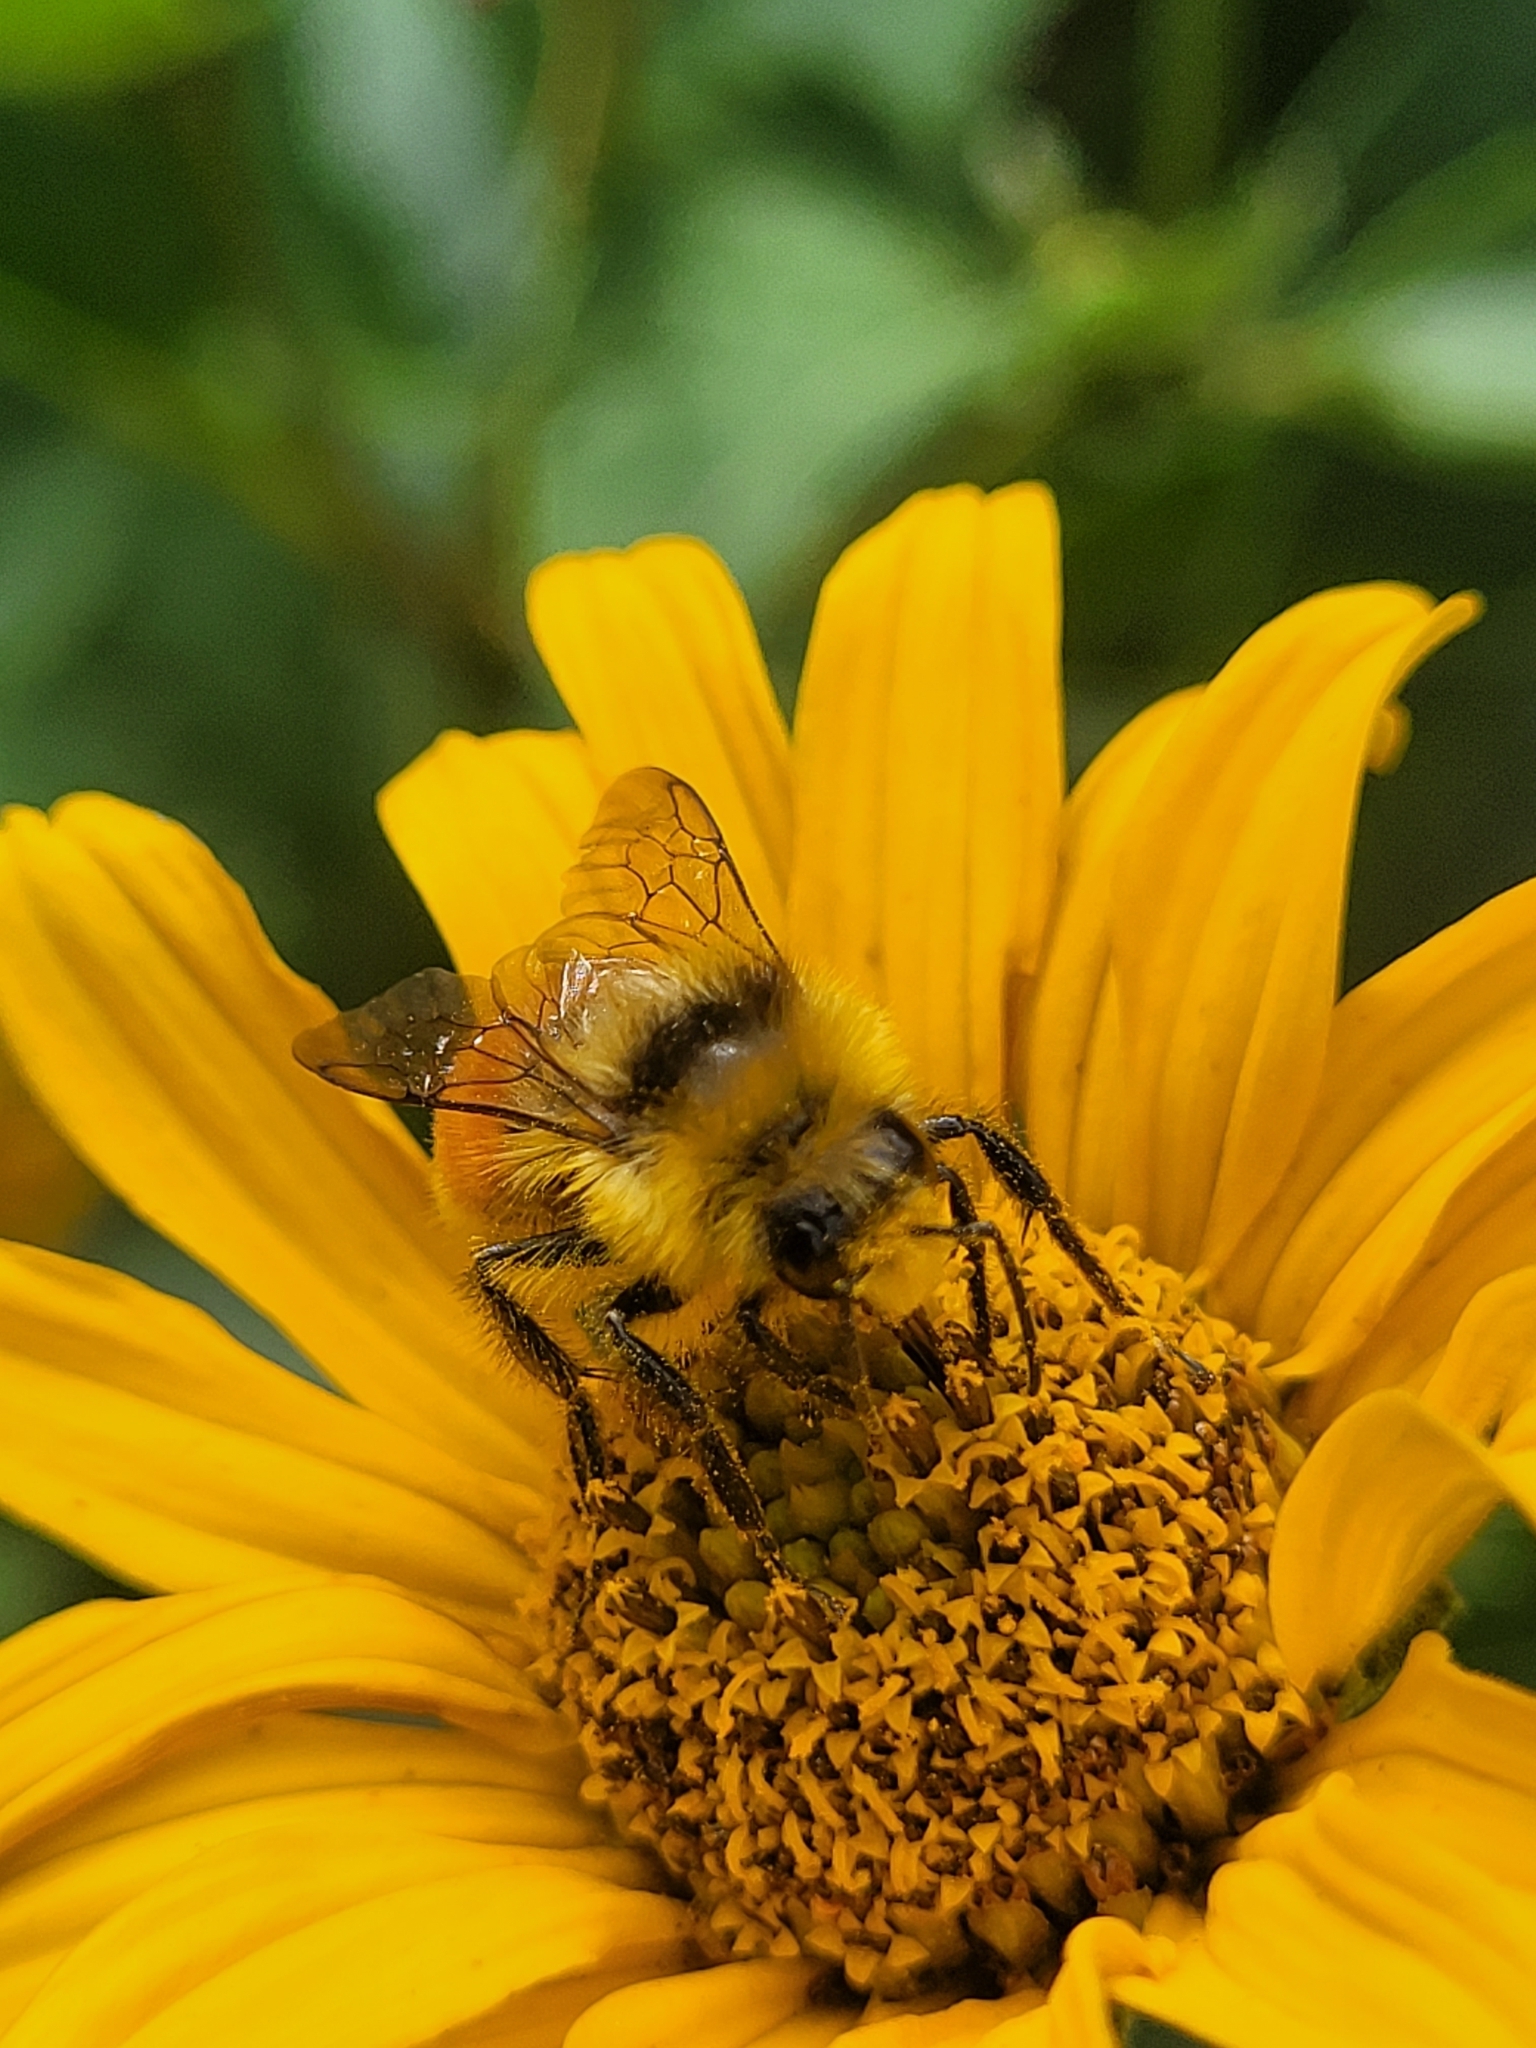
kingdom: Animalia
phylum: Arthropoda
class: Insecta
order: Hymenoptera
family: Apidae
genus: Bombus
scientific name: Bombus huntii
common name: Hunt bumble bee
